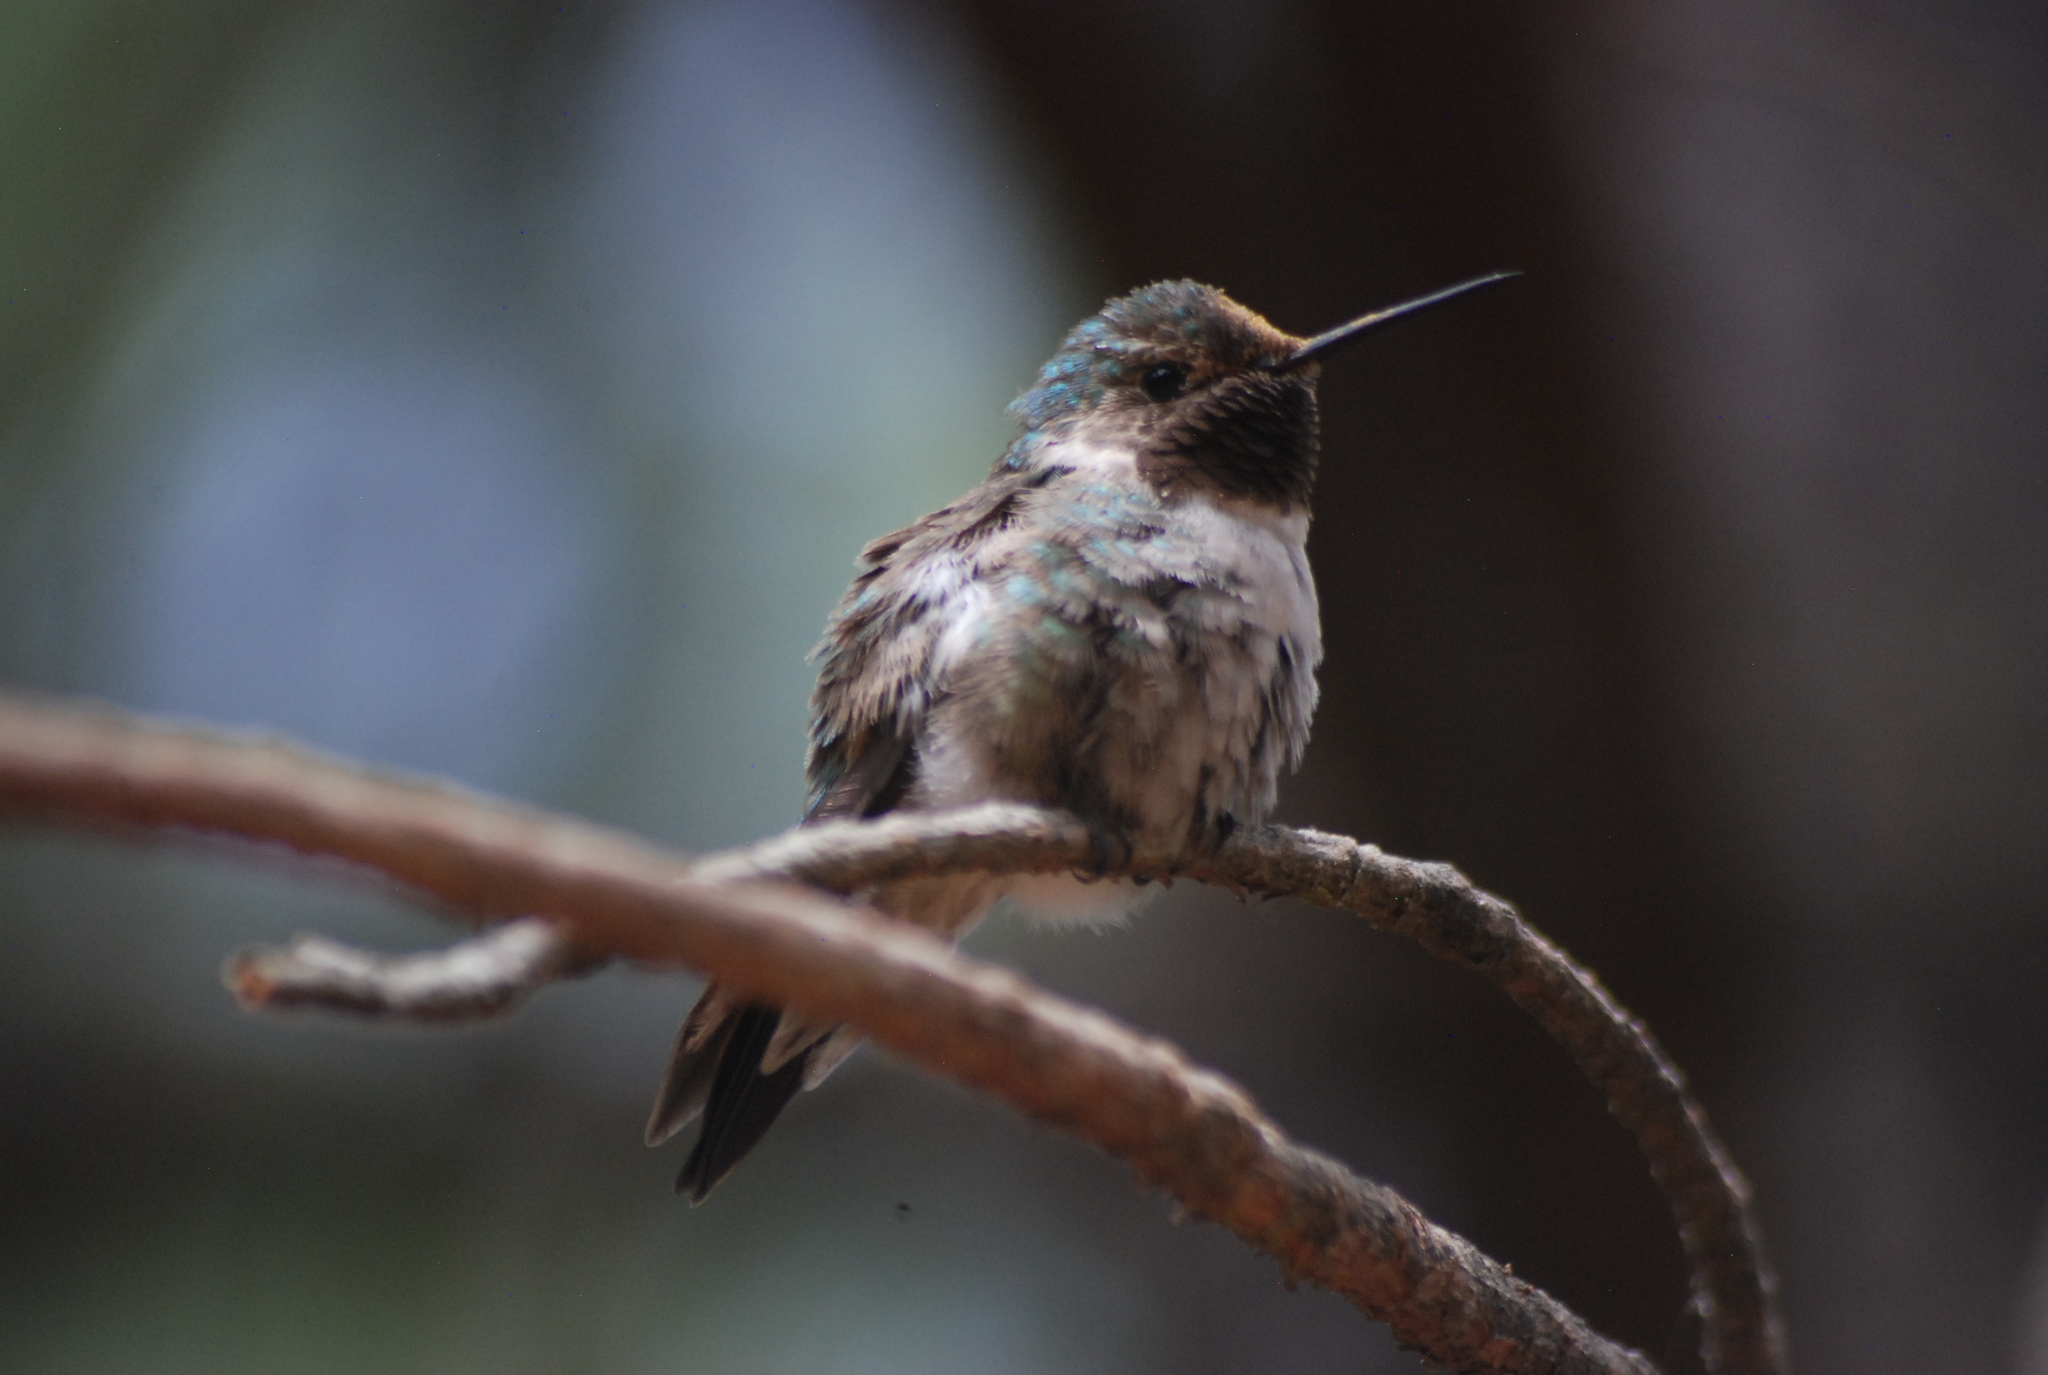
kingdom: Animalia
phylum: Chordata
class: Aves
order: Apodiformes
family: Trochilidae
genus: Selasphorus
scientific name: Selasphorus platycercus
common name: Broad-tailed hummingbird
